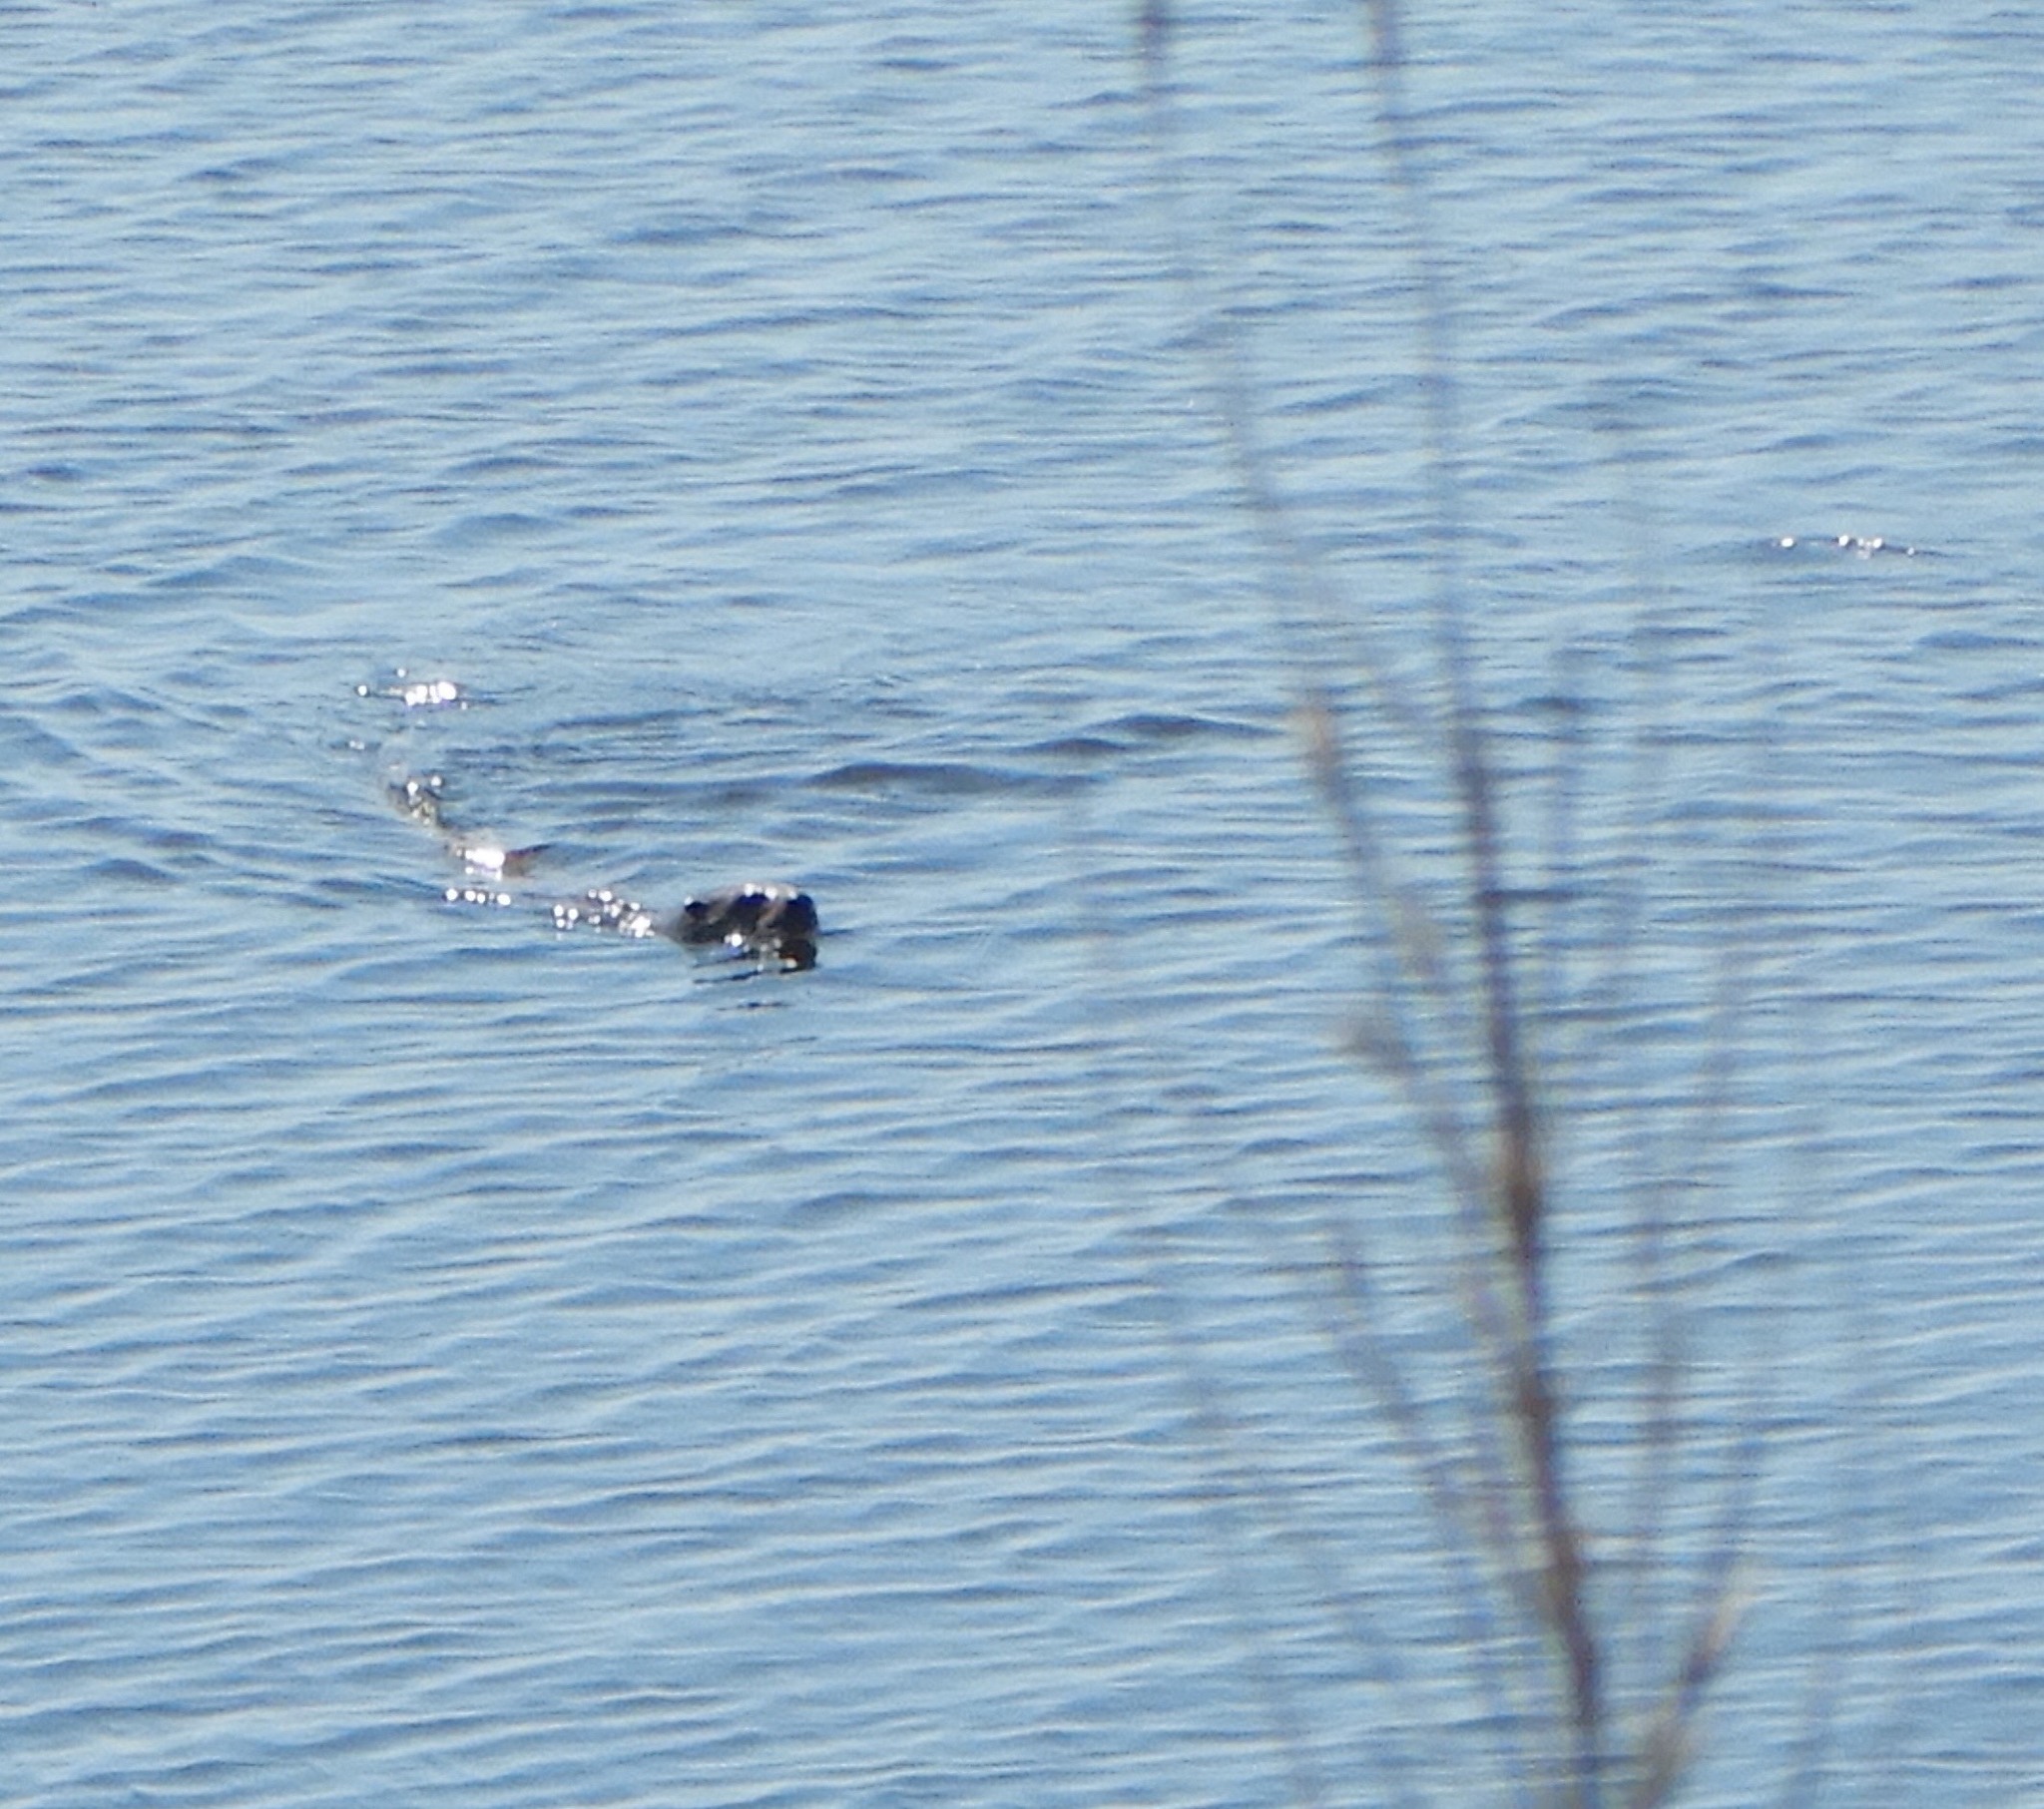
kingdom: Animalia
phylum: Chordata
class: Mammalia
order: Carnivora
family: Mustelidae
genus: Lontra
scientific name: Lontra canadensis
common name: North american river otter
